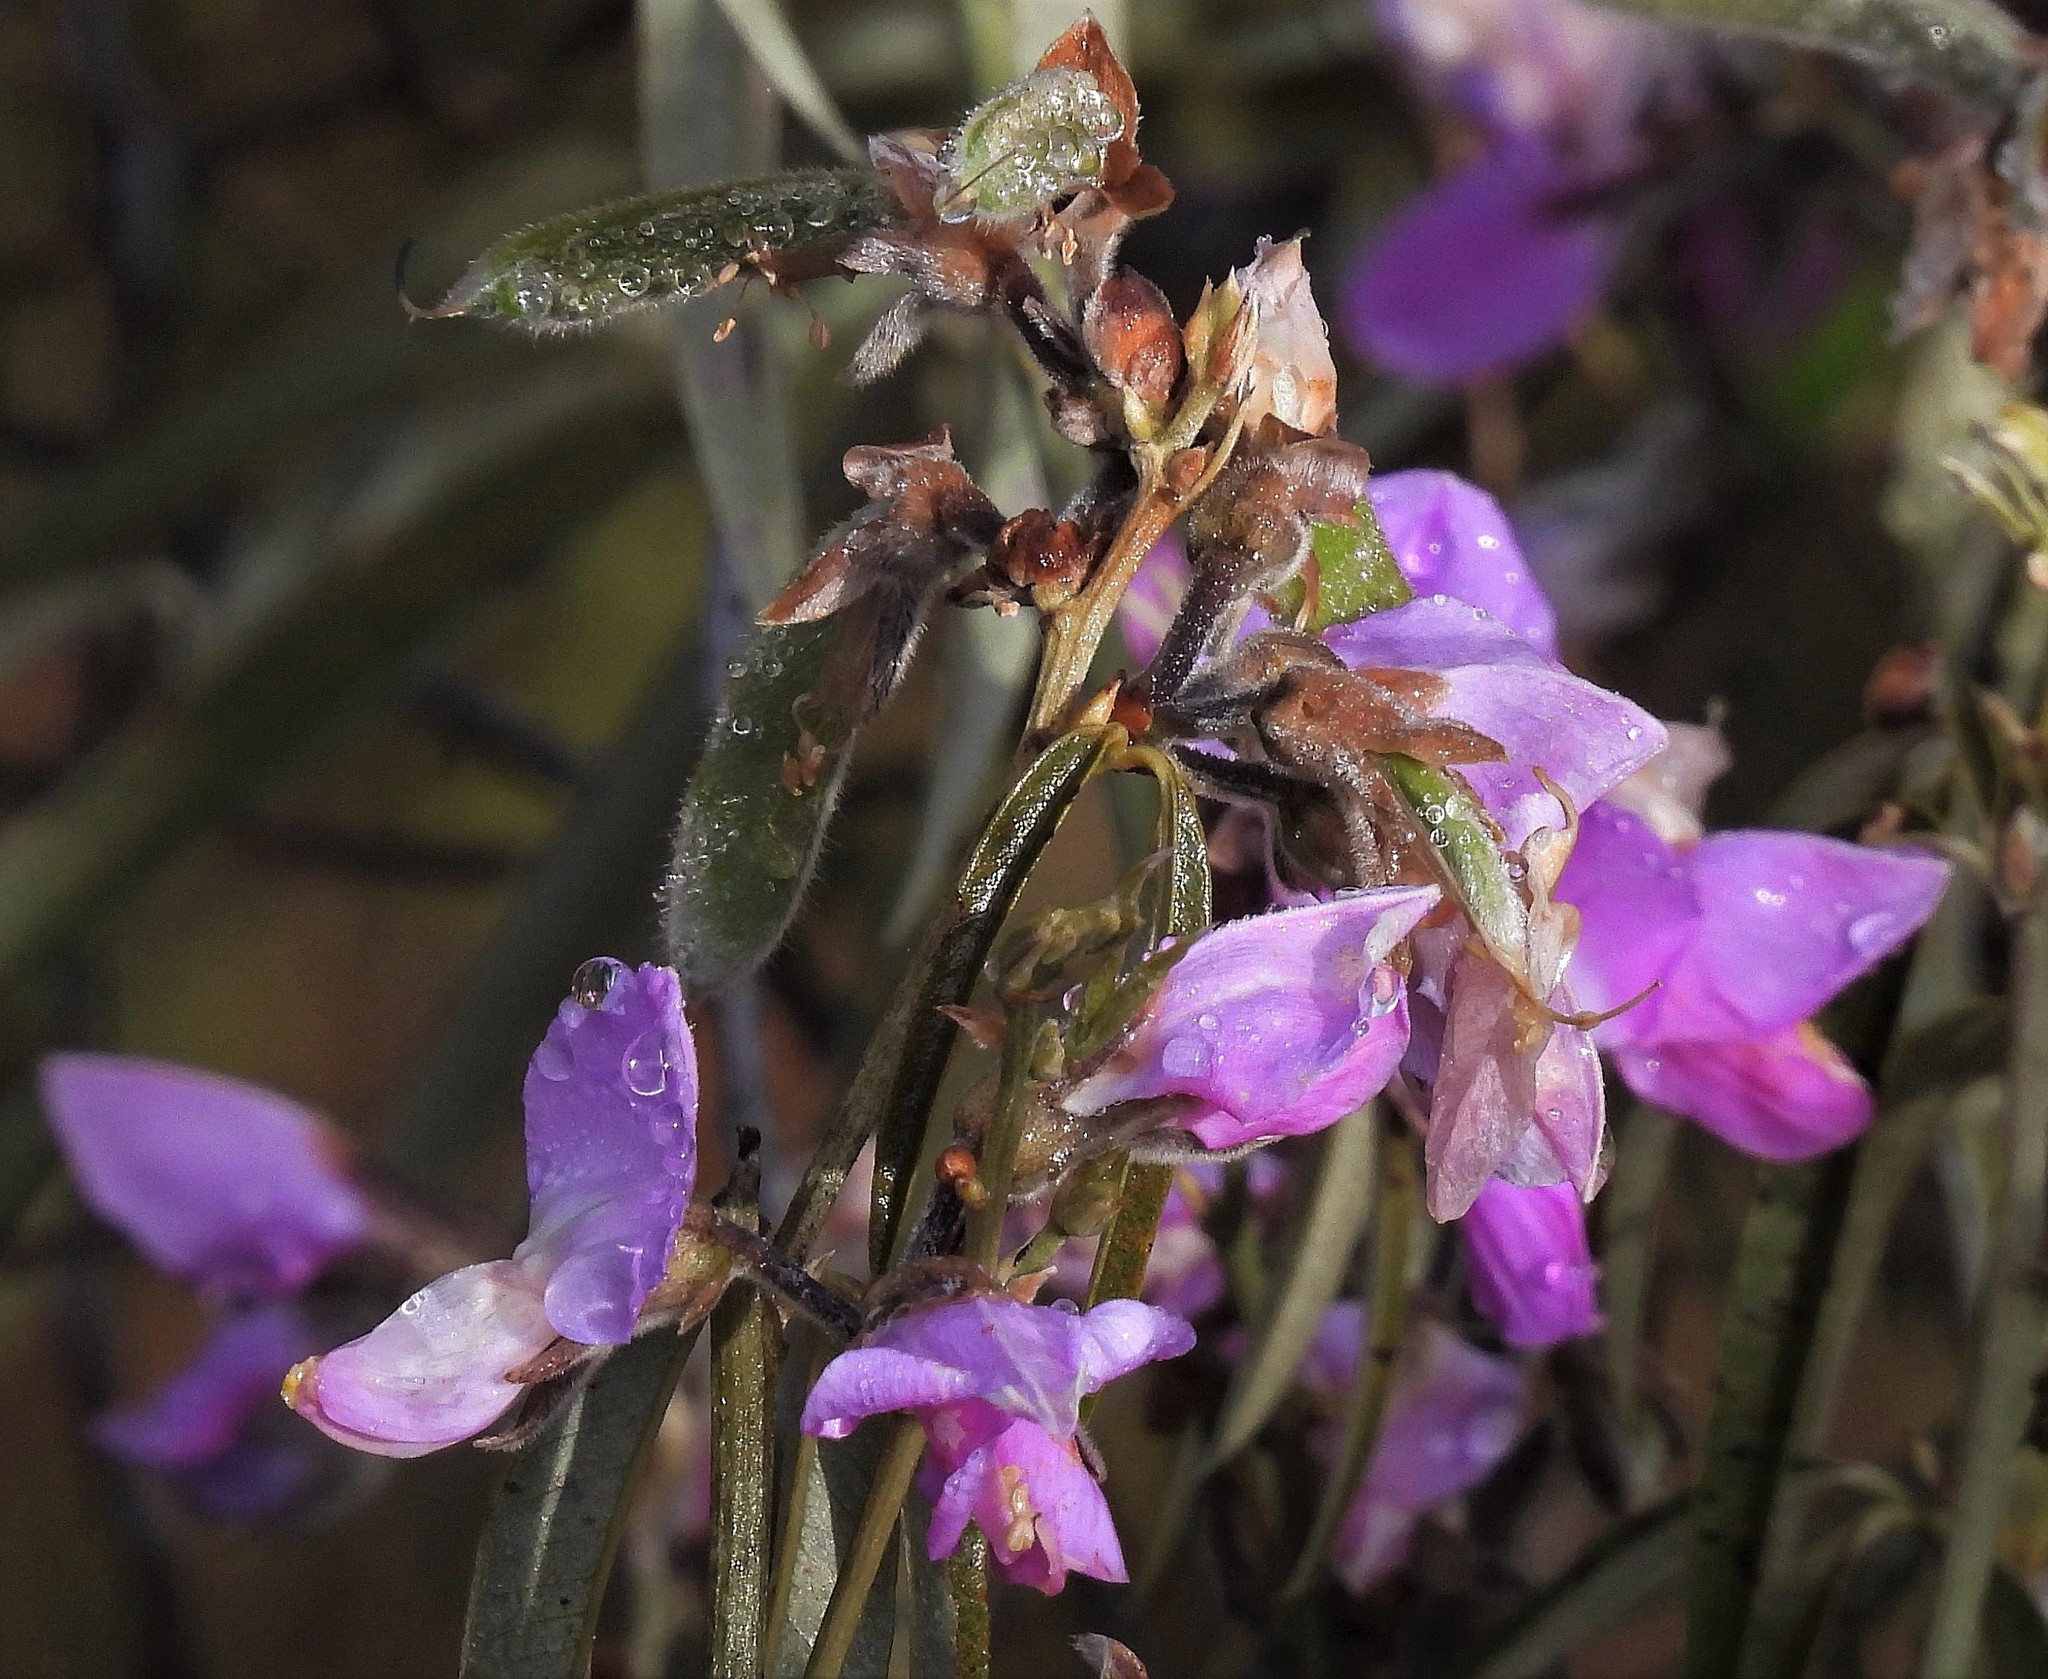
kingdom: Plantae
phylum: Tracheophyta
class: Magnoliopsida
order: Fabales
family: Fabaceae
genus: Nanogalactia
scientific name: Nanogalactia heterophylla
